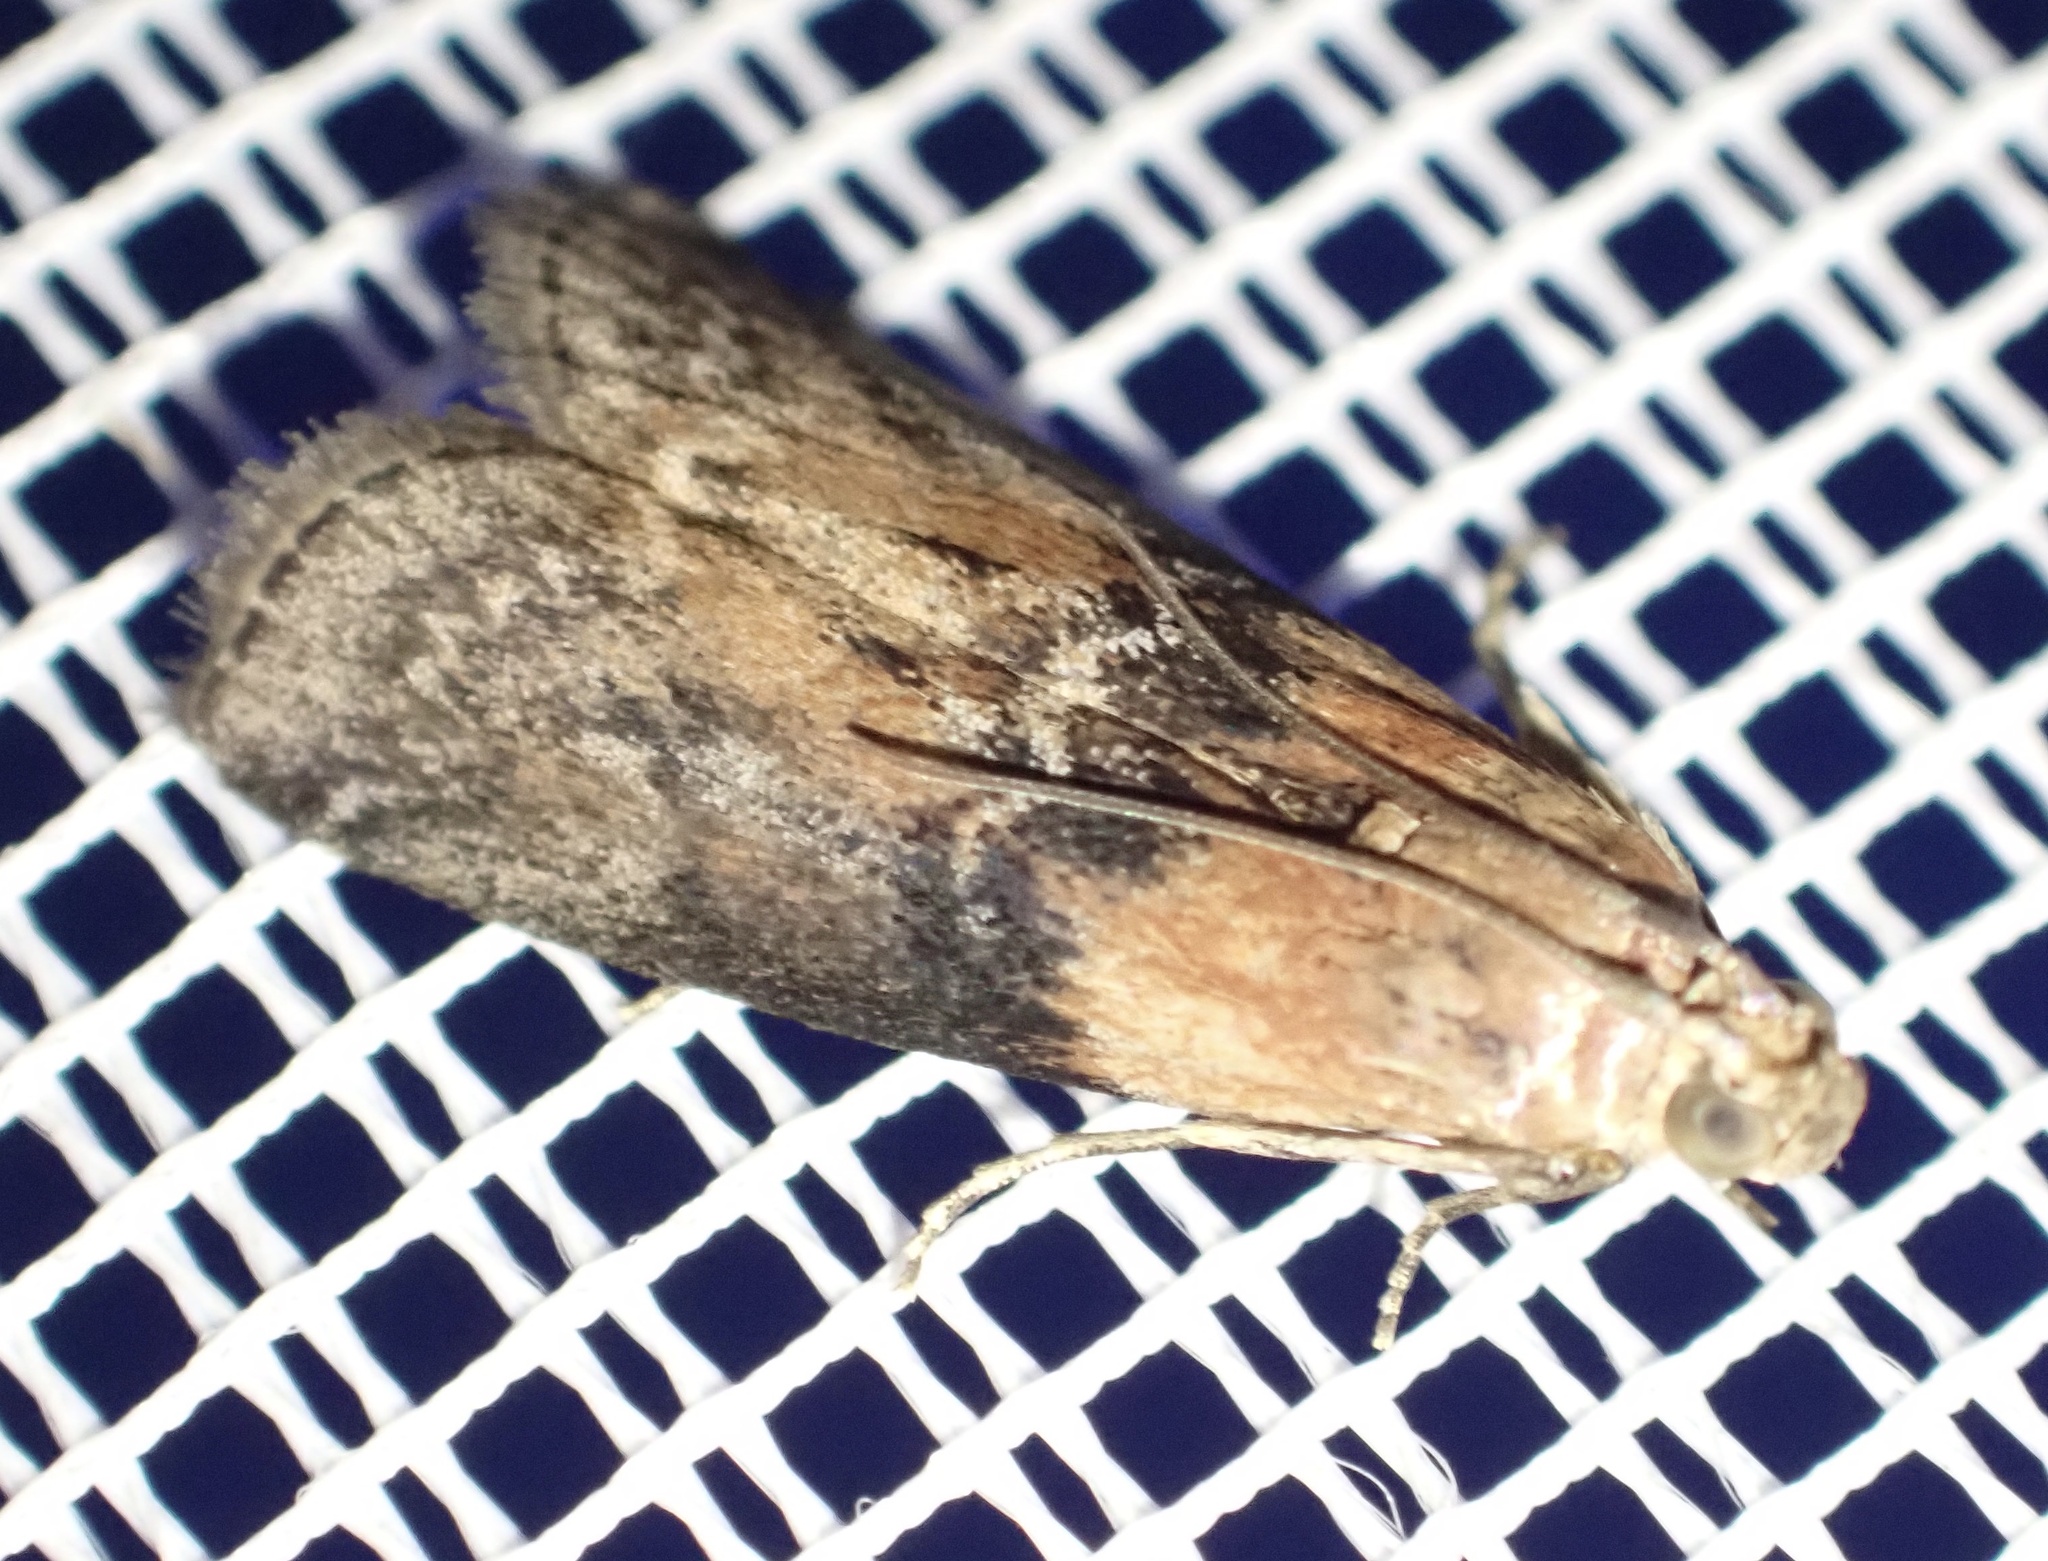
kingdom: Animalia
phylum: Arthropoda
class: Insecta
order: Lepidoptera
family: Pyralidae
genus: Sciota
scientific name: Sciota adelphella
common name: Willow knot-horn
